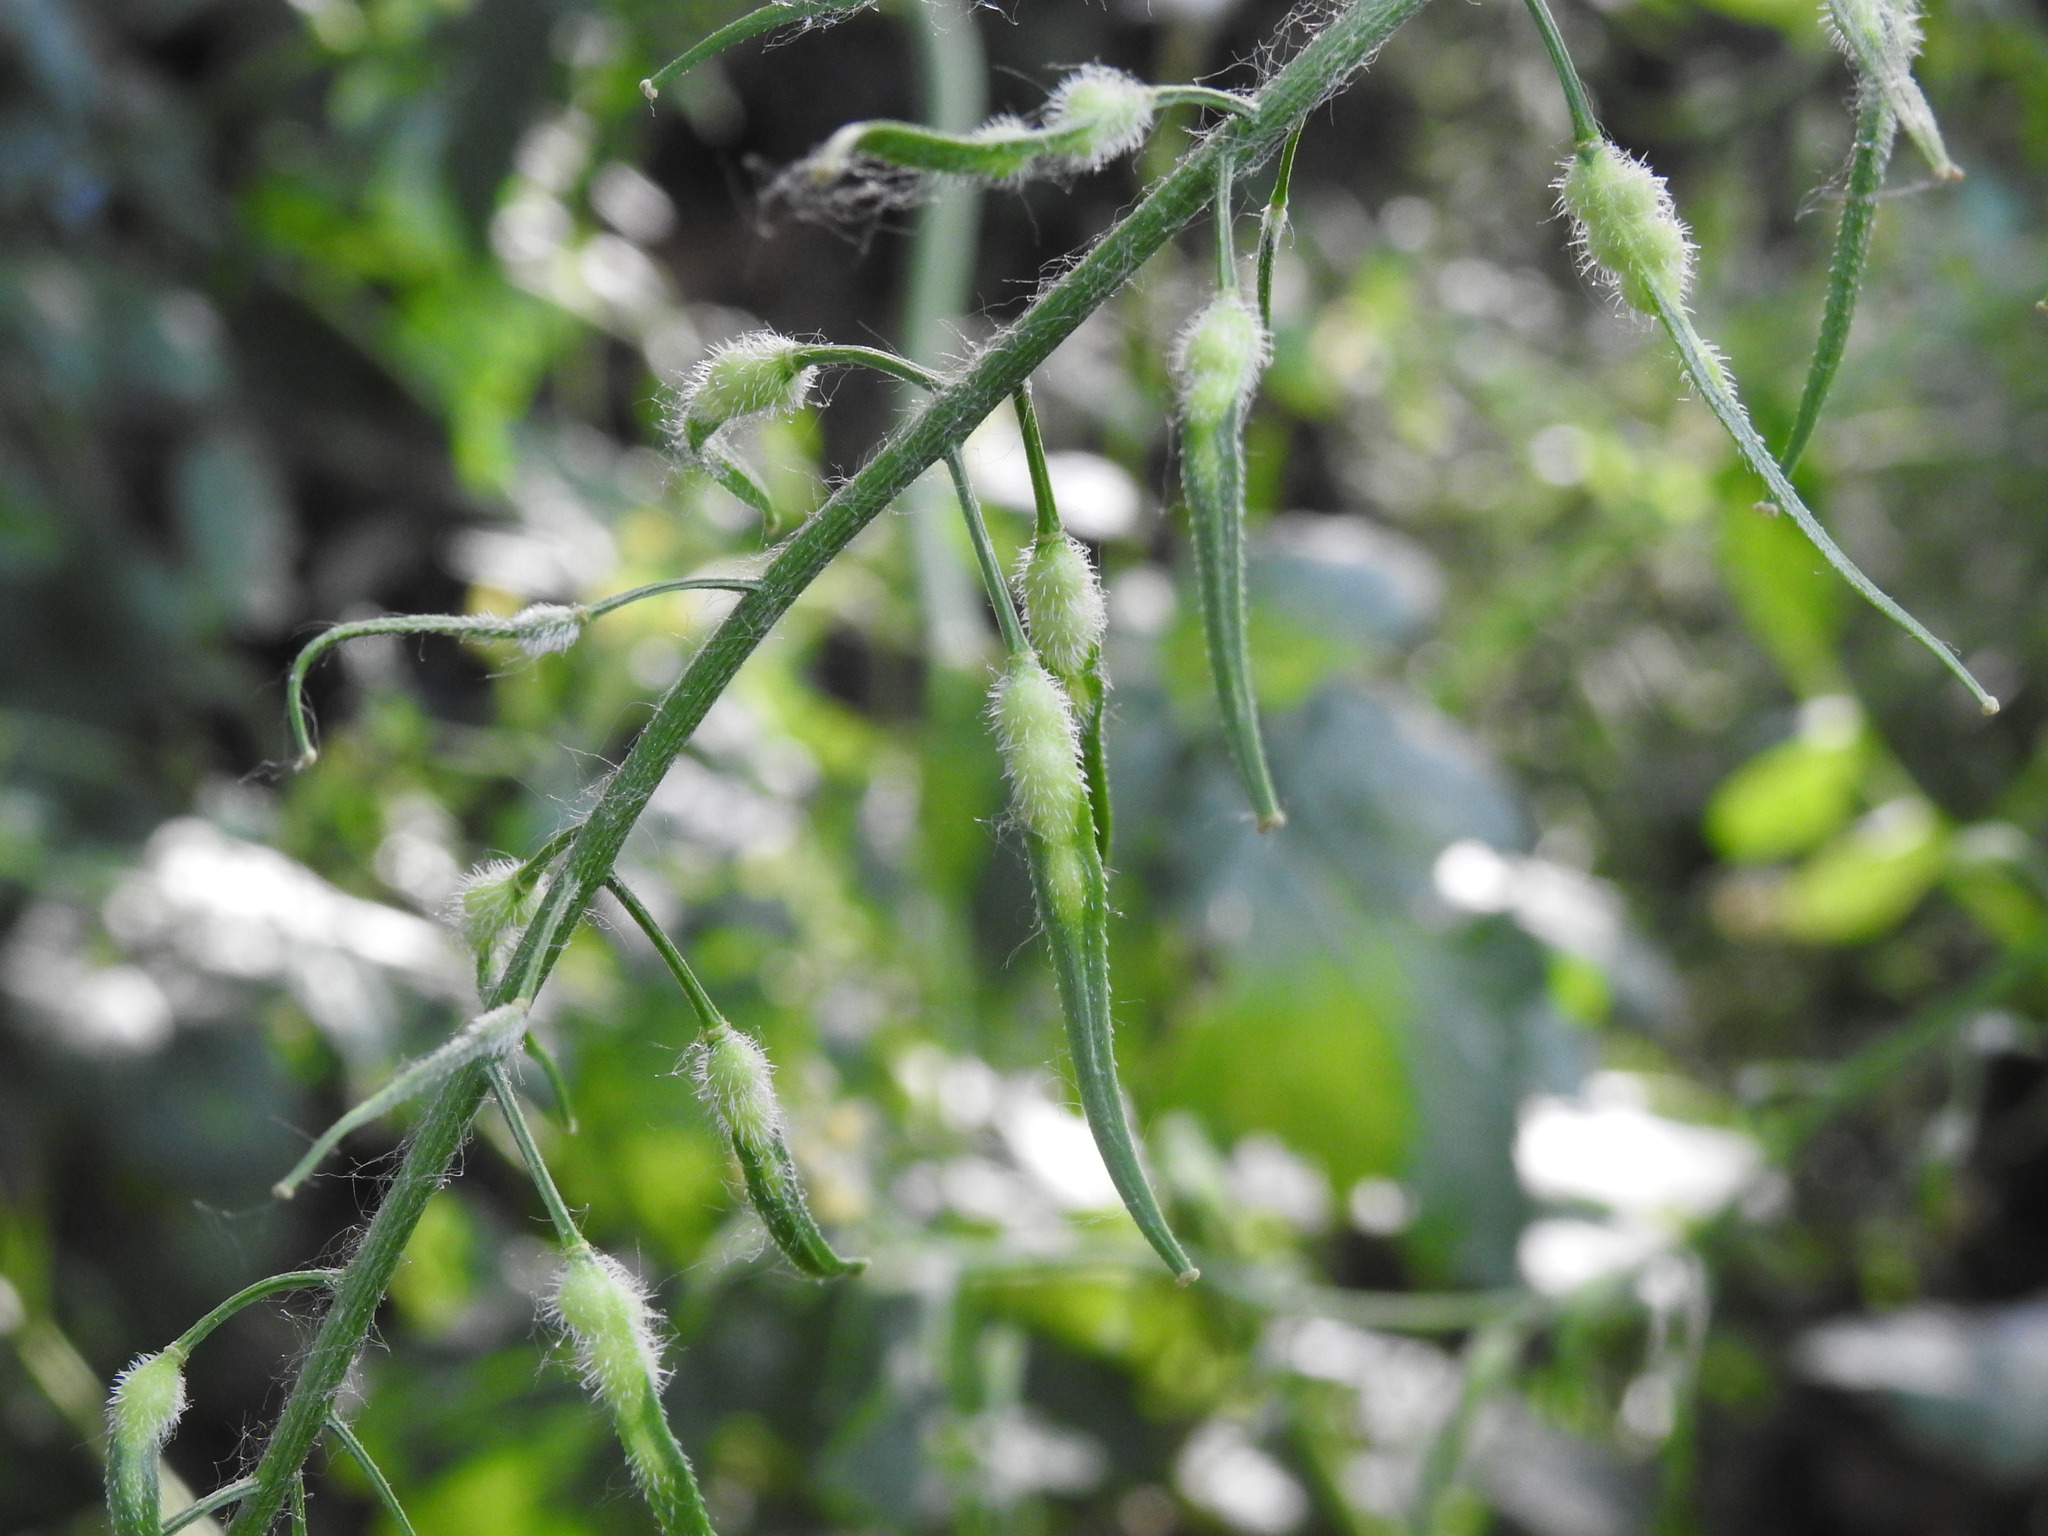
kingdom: Plantae
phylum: Tracheophyta
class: Magnoliopsida
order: Brassicales
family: Brassicaceae
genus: Sinapis
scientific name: Sinapis alba
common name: White mustard
